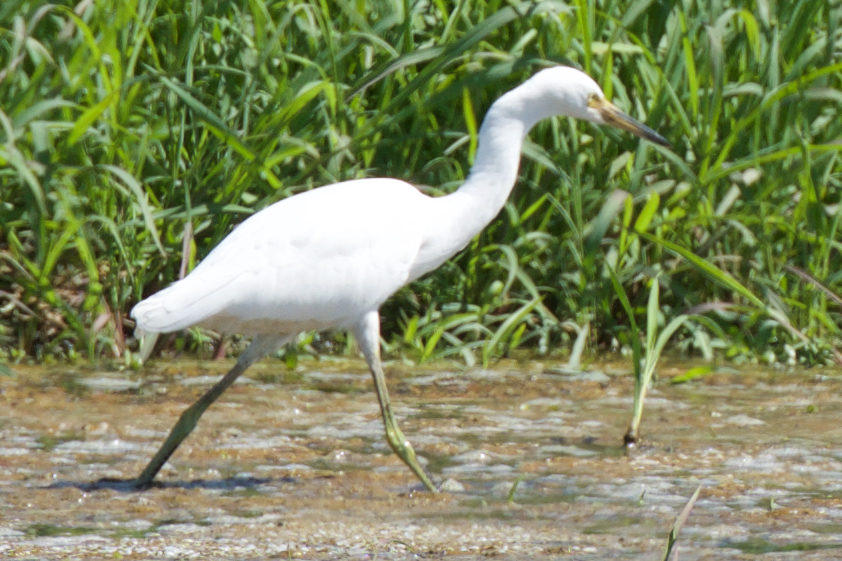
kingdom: Animalia
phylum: Chordata
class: Aves
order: Pelecaniformes
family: Ardeidae
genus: Egretta
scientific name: Egretta thula
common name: Snowy egret
